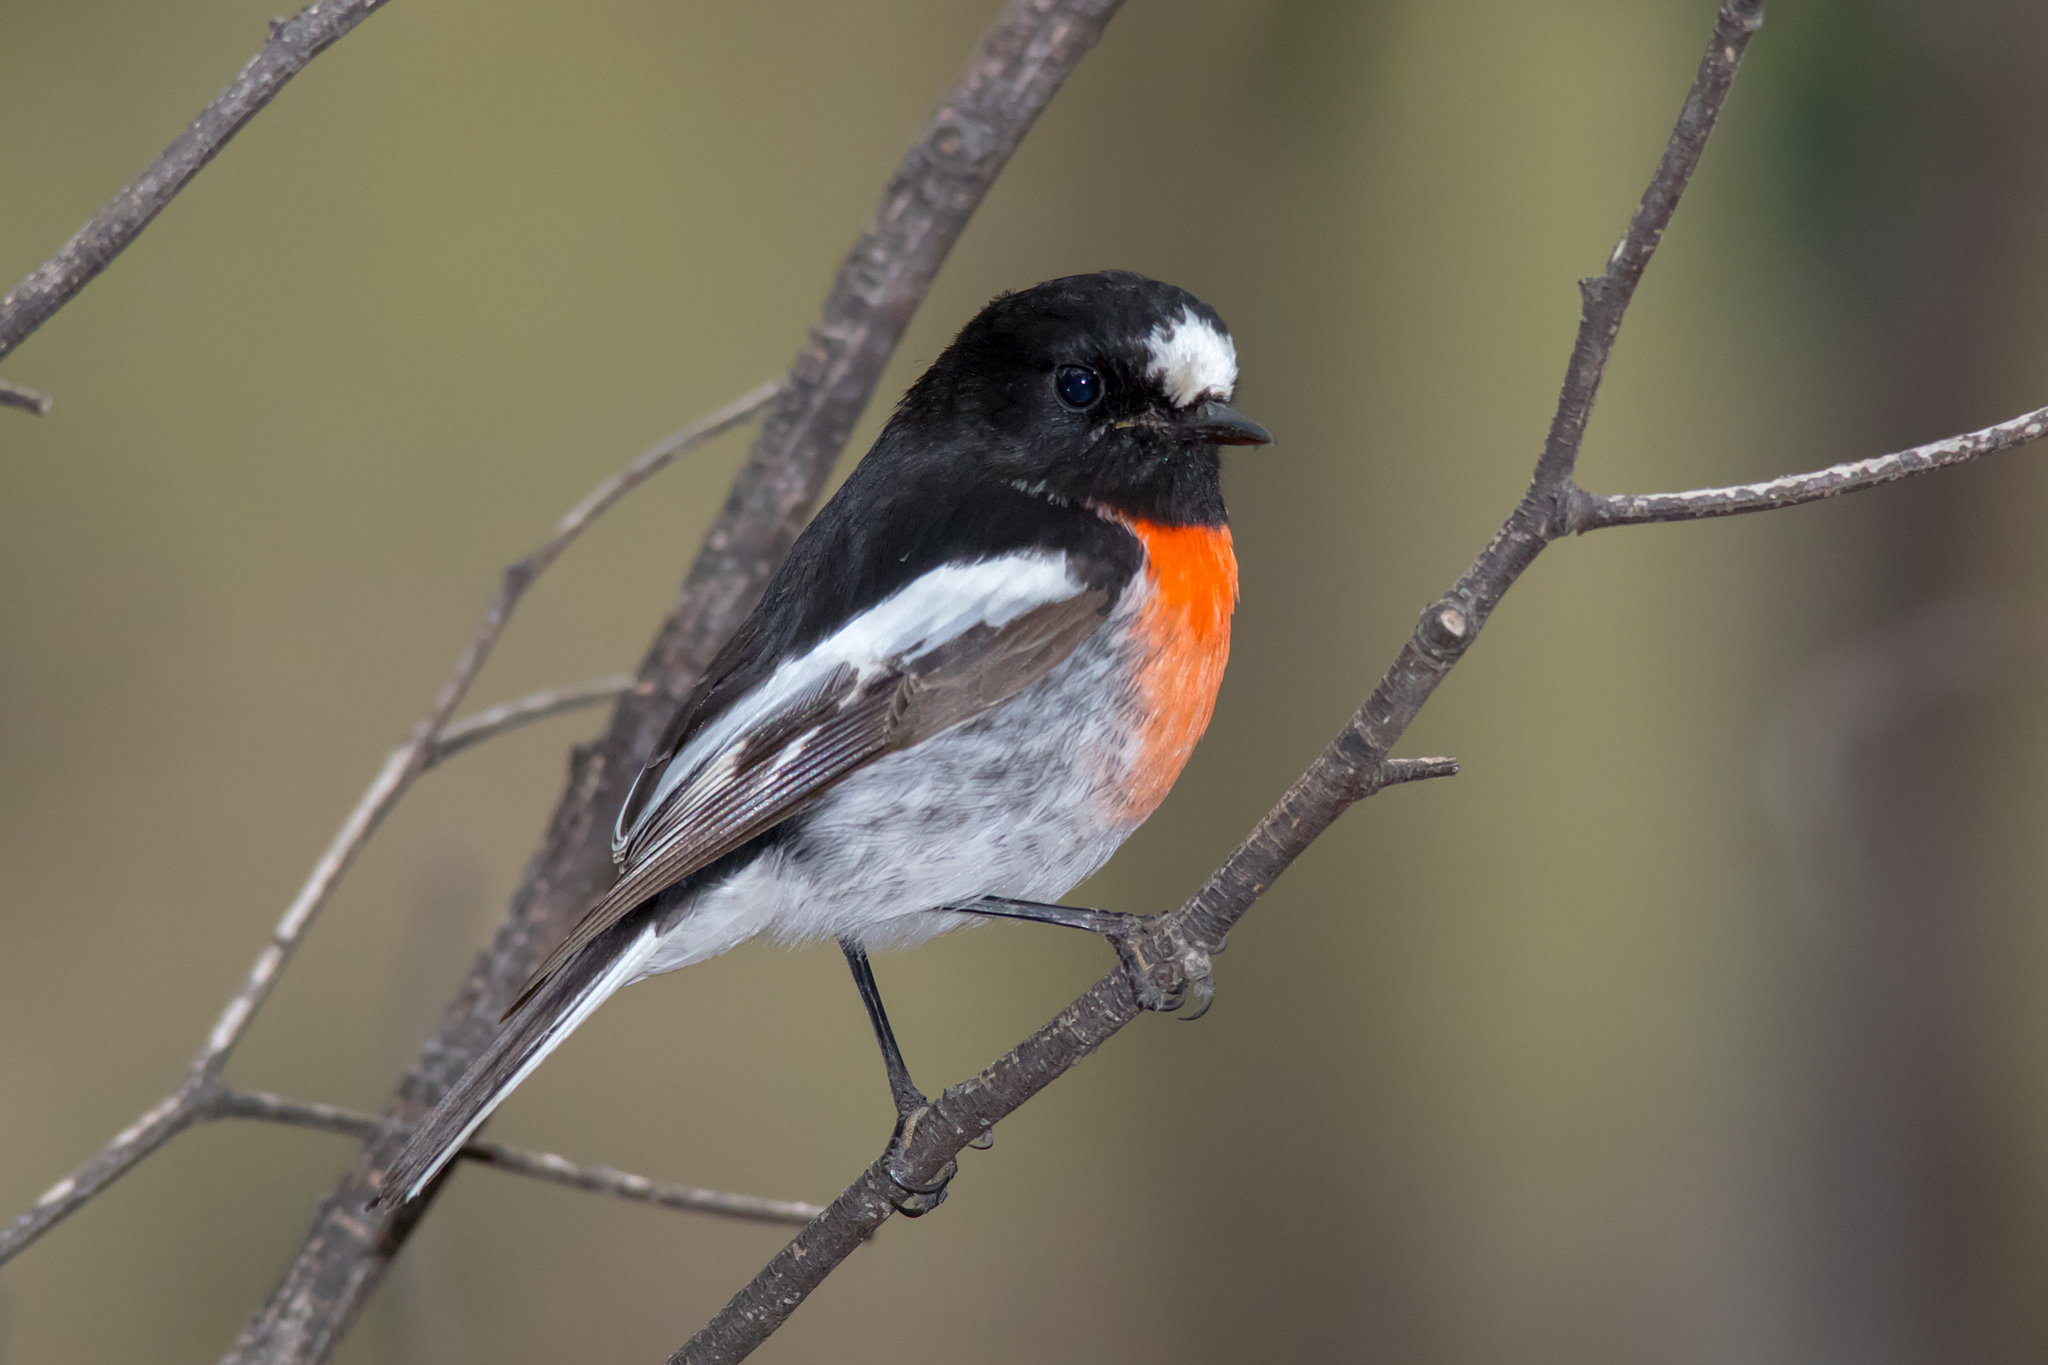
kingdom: Animalia
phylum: Chordata
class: Aves
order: Passeriformes
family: Petroicidae
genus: Petroica
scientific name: Petroica boodang
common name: Scarlet robin
